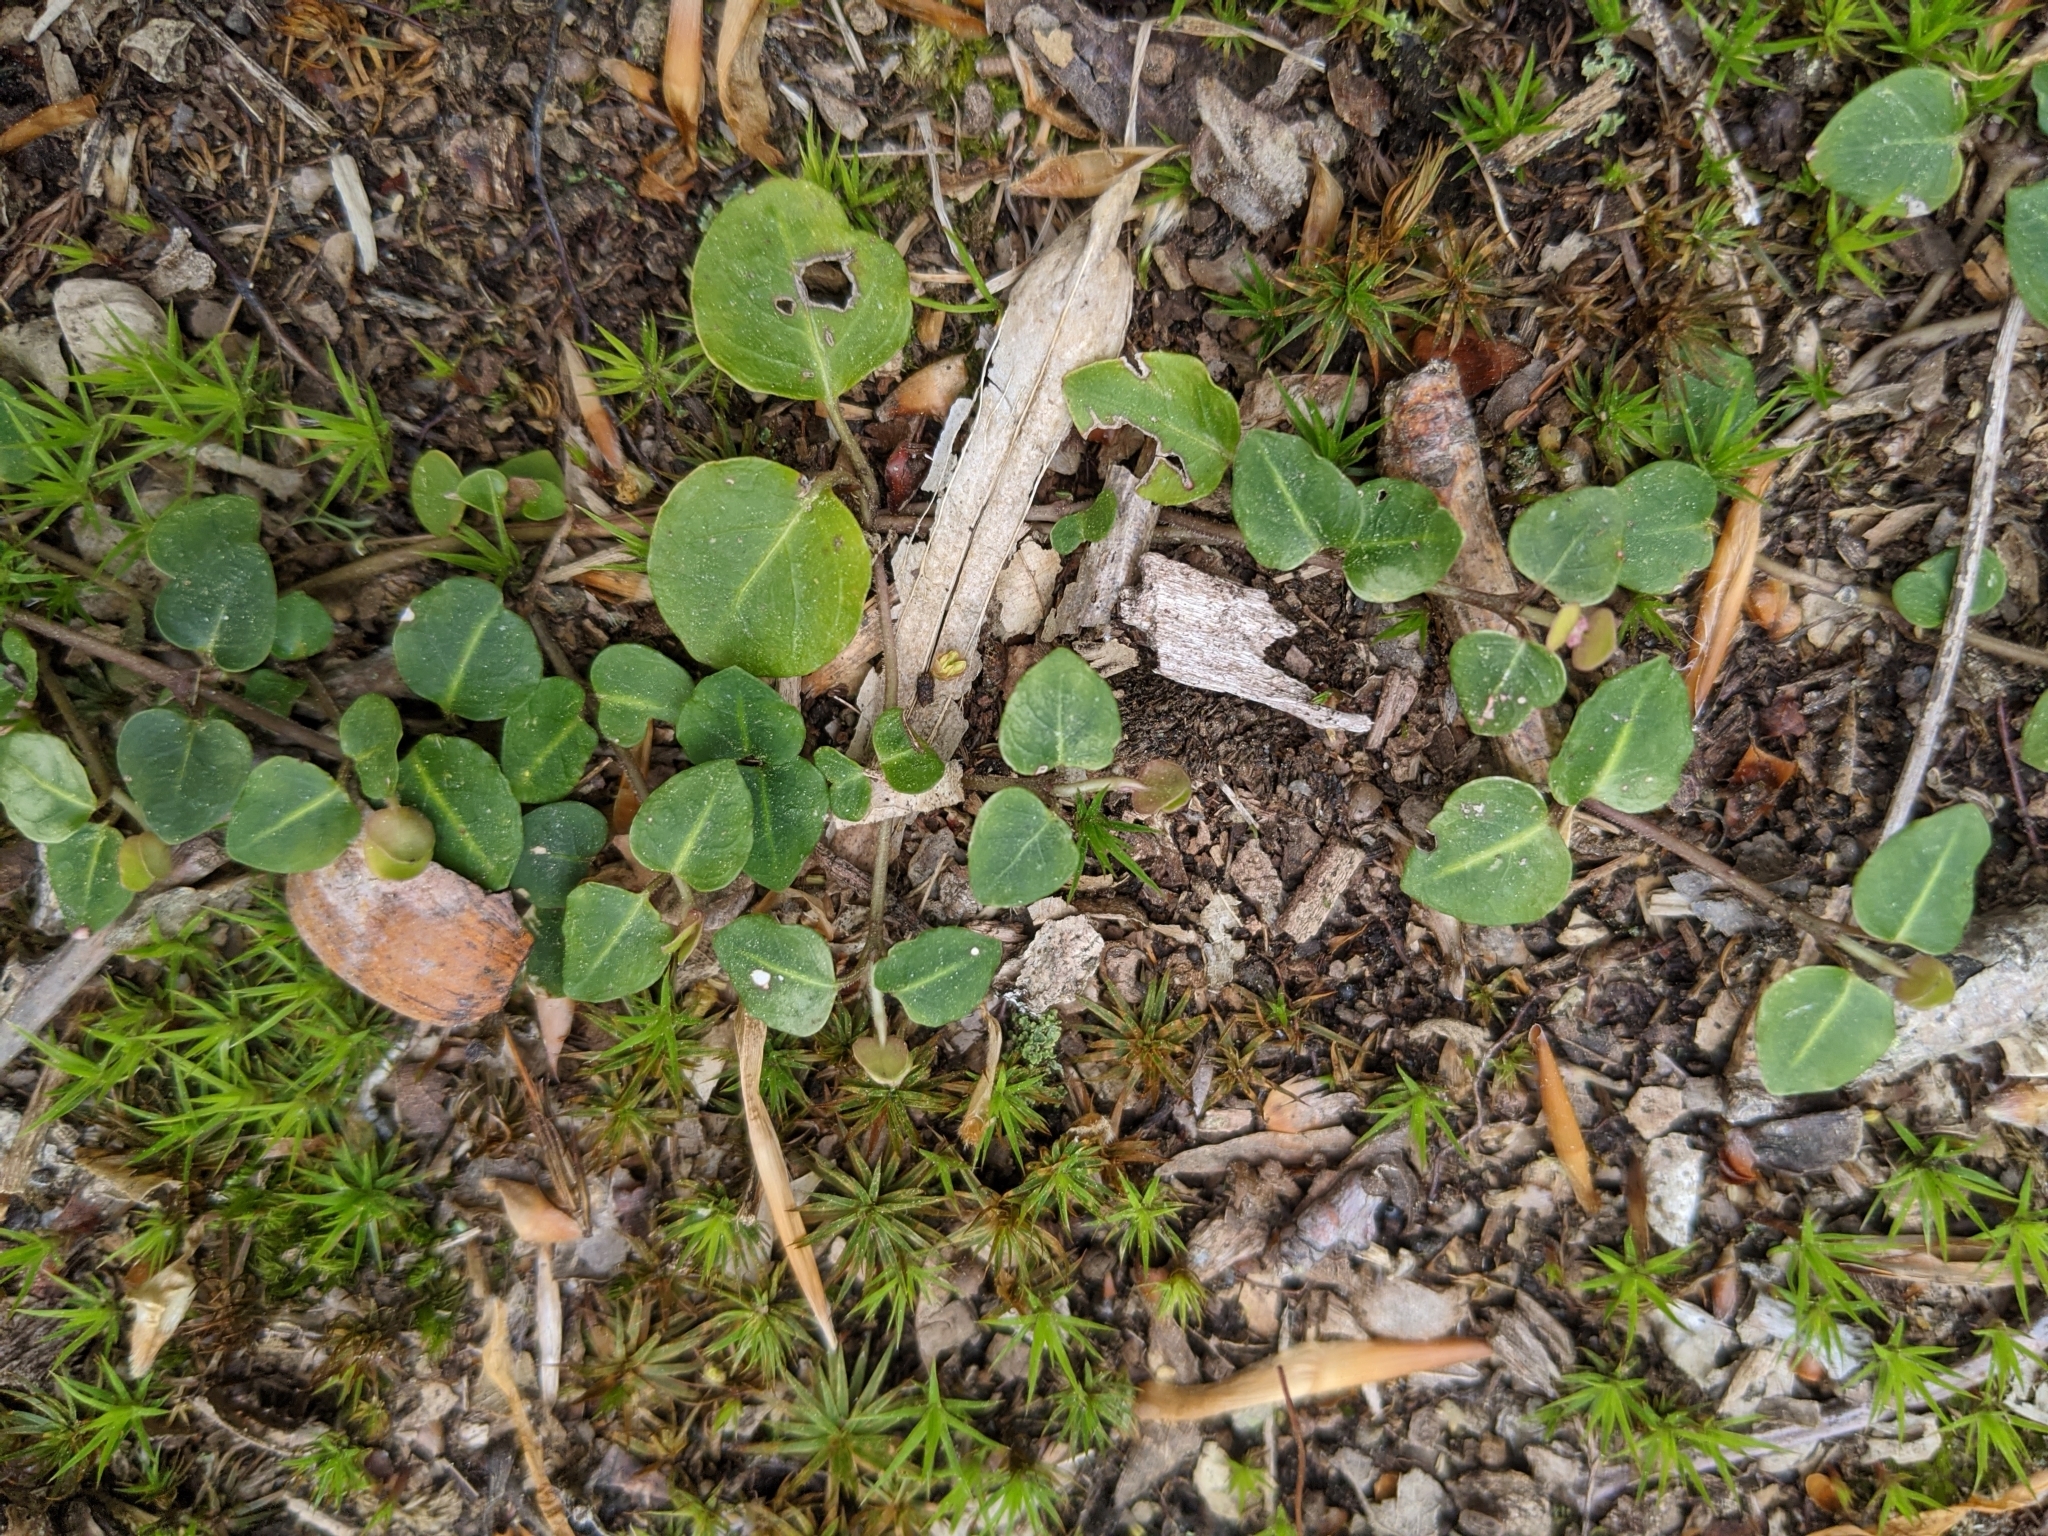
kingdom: Plantae
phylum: Tracheophyta
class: Magnoliopsida
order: Gentianales
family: Rubiaceae
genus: Mitchella
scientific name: Mitchella repens
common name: Partridge-berry
